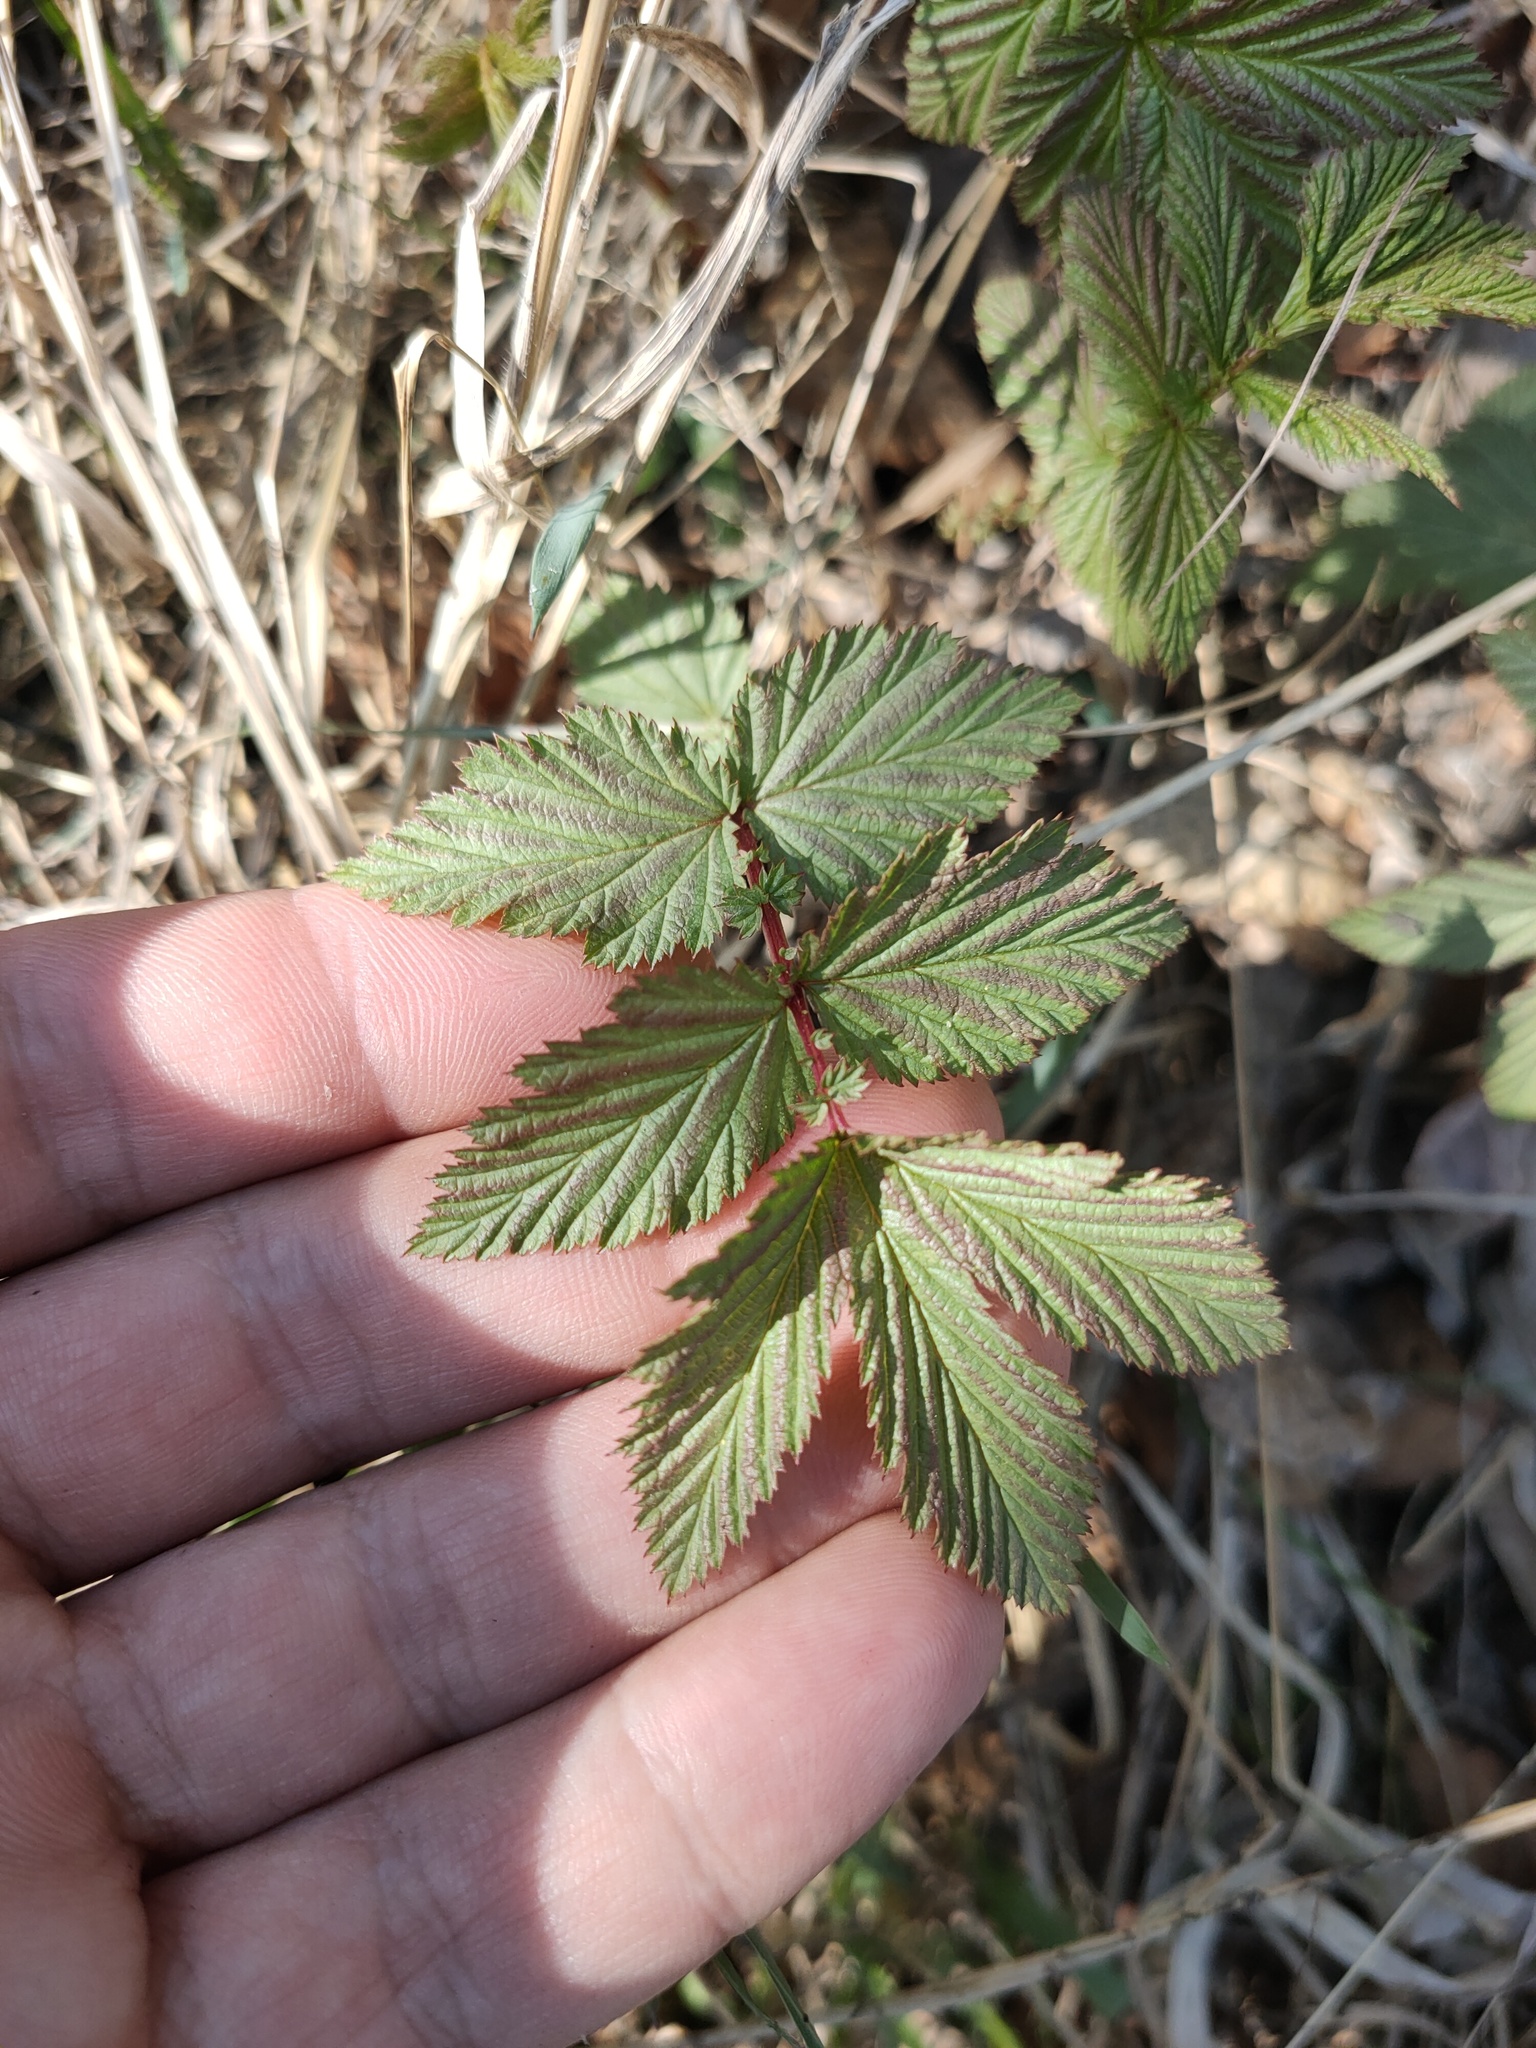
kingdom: Plantae
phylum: Tracheophyta
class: Magnoliopsida
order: Rosales
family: Rosaceae
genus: Filipendula
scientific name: Filipendula ulmaria
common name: Meadowsweet
